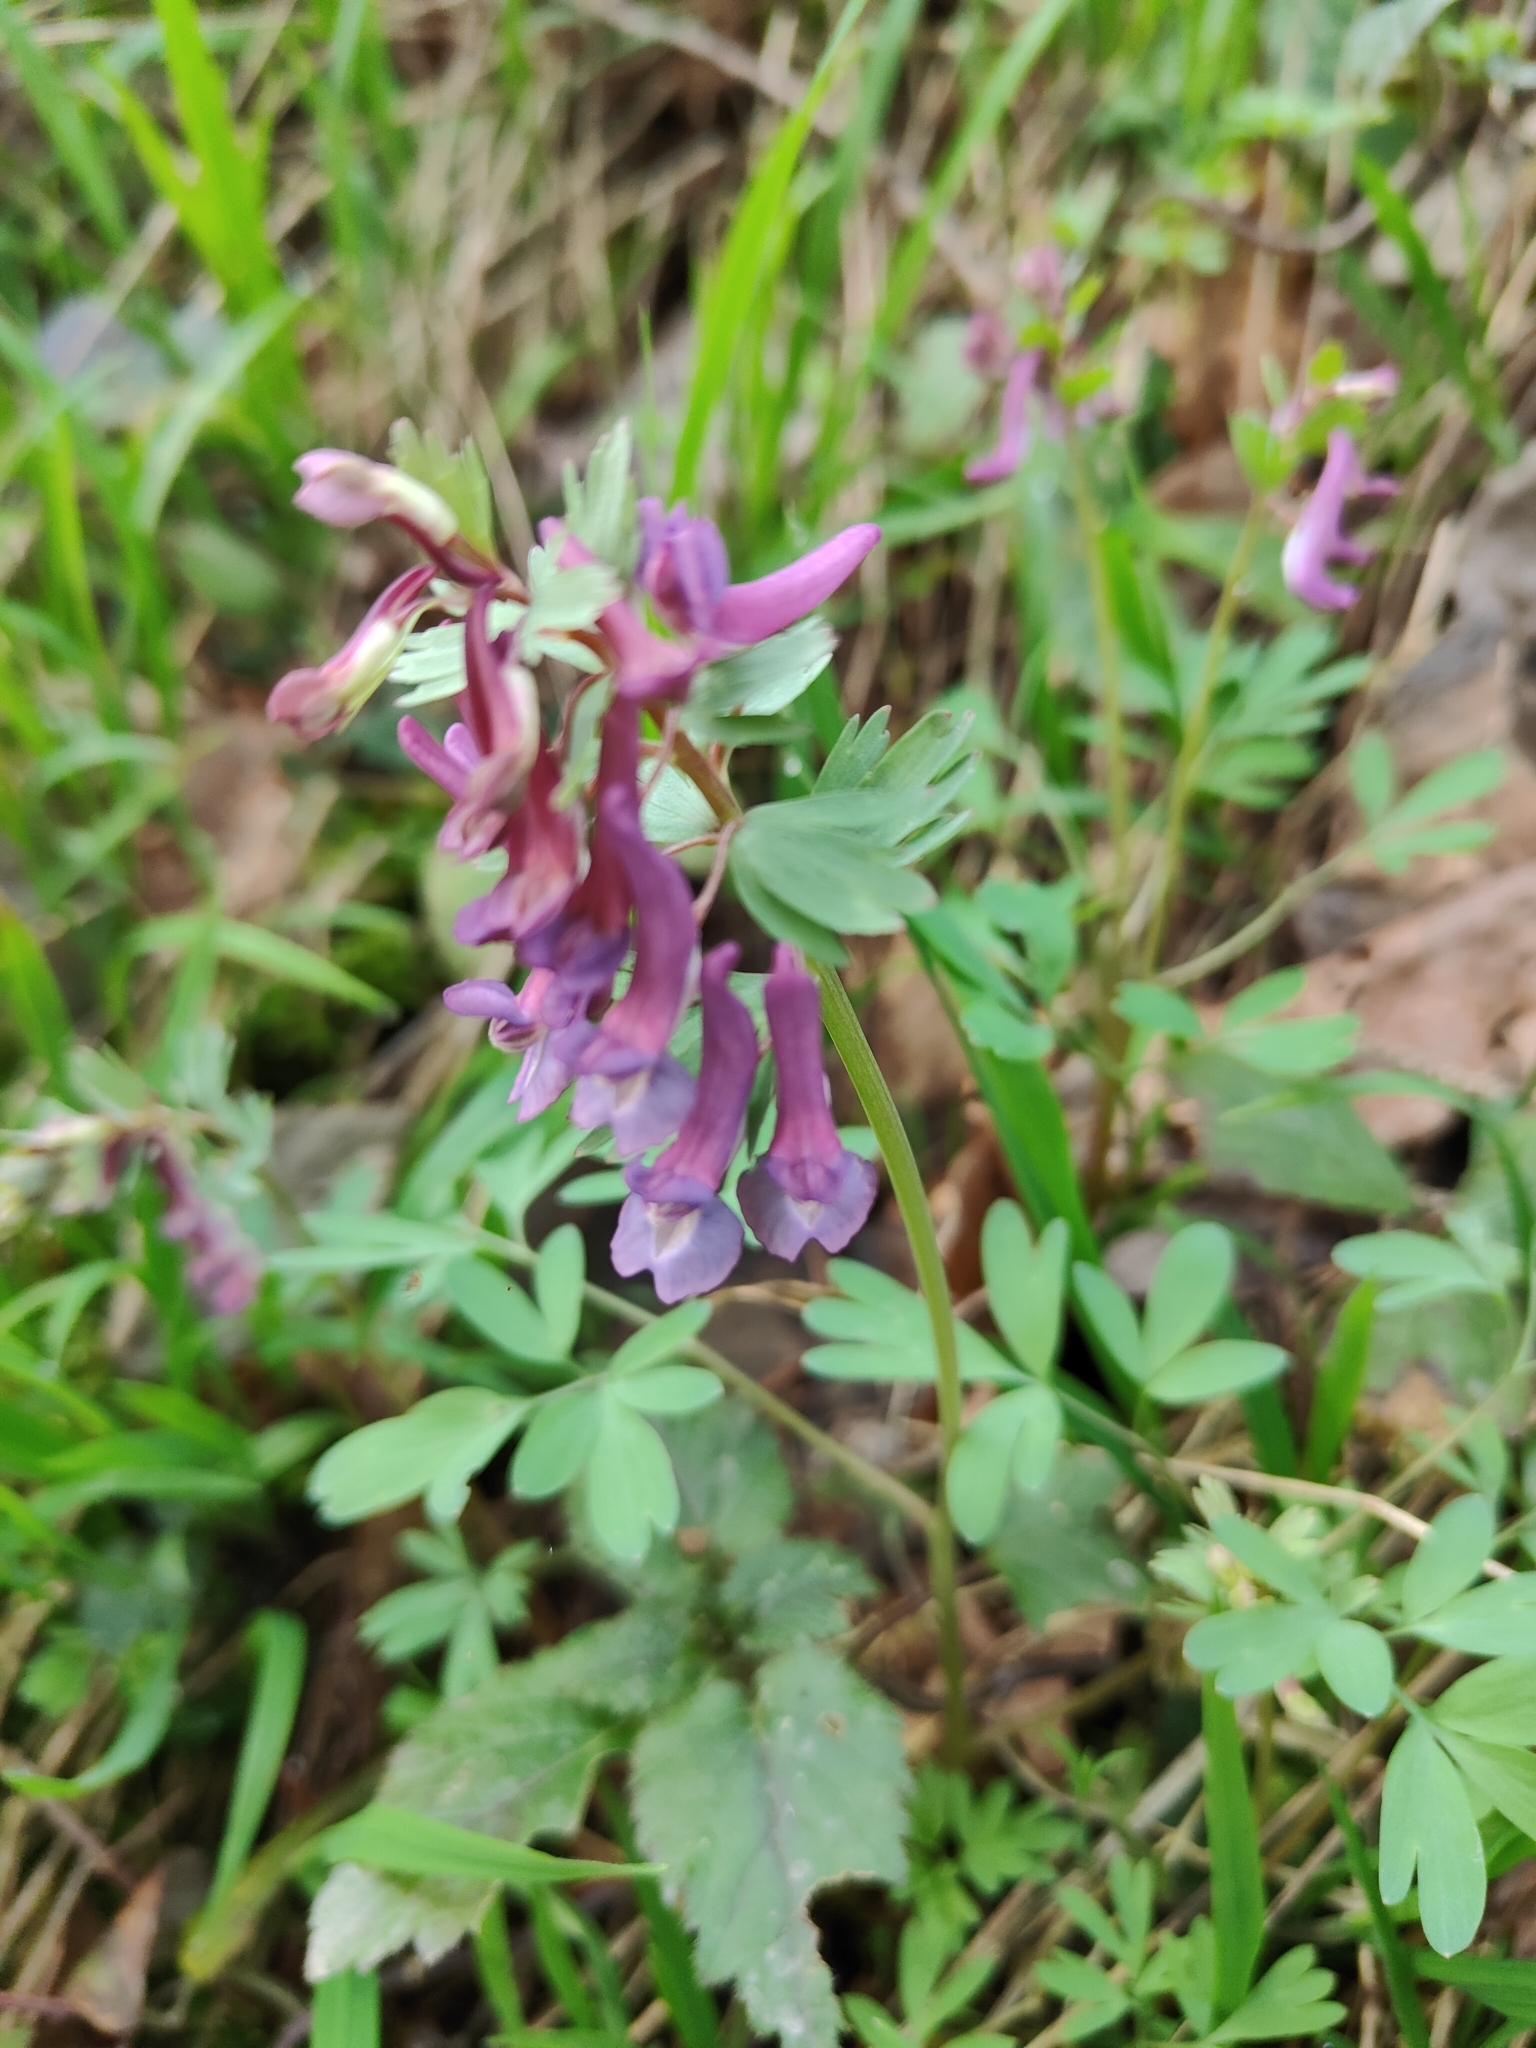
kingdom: Plantae
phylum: Tracheophyta
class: Magnoliopsida
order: Ranunculales
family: Papaveraceae
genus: Corydalis
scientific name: Corydalis solida
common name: Bird-in-a-bush
